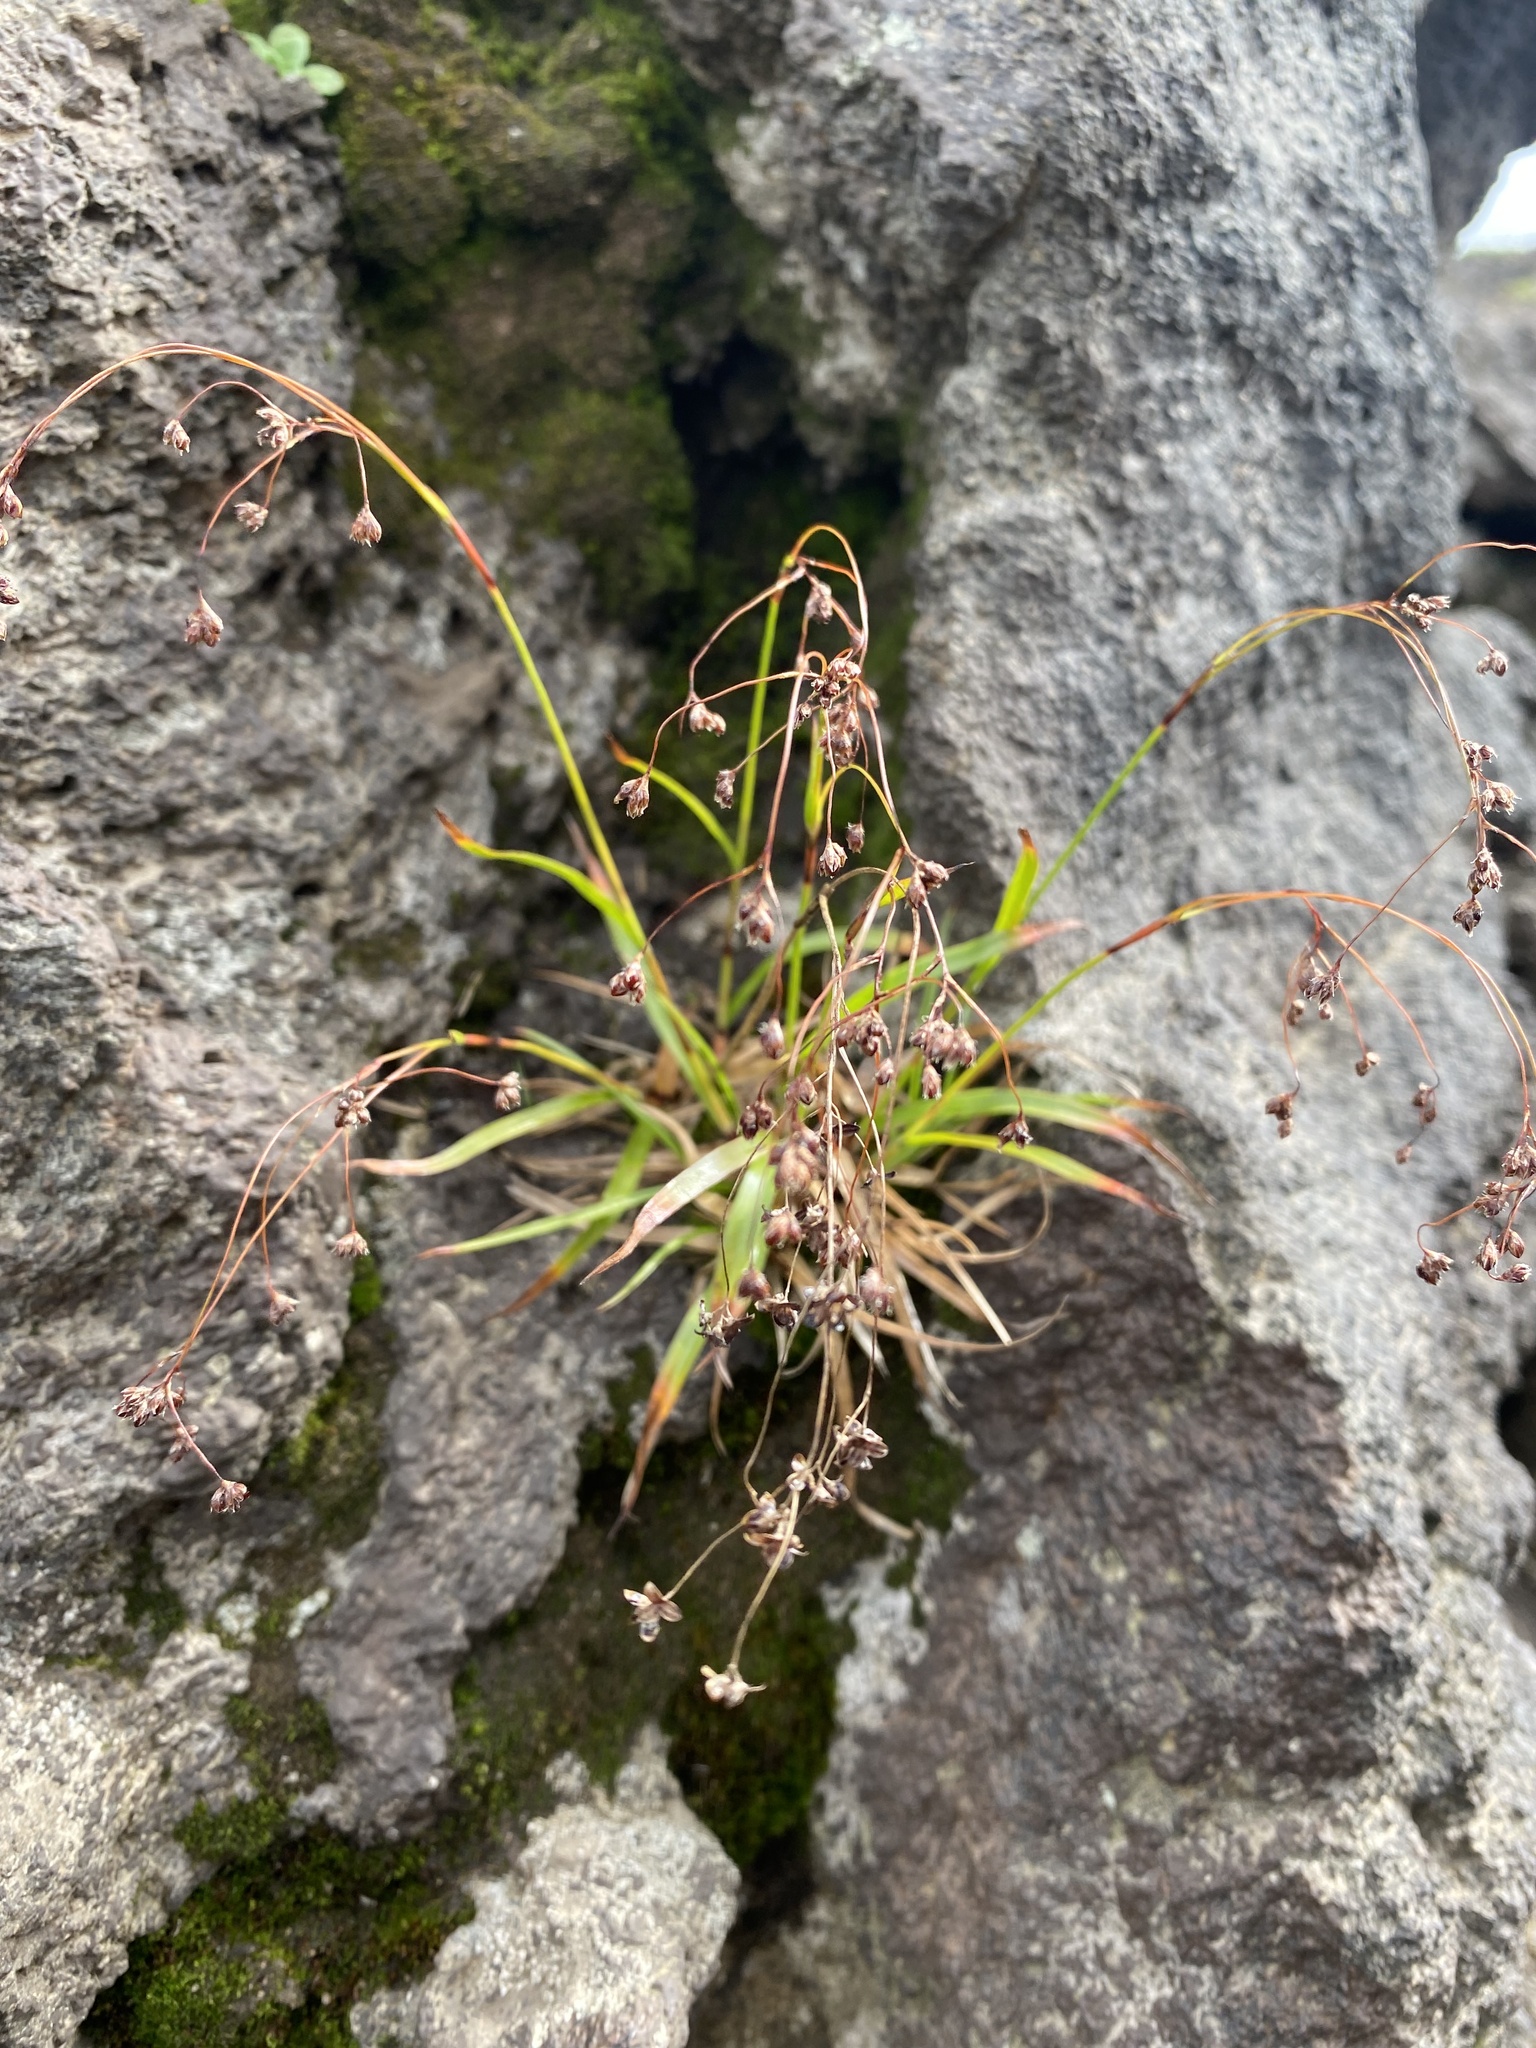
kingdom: Plantae
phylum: Tracheophyta
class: Liliopsida
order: Poales
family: Juncaceae
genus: Luzula
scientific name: Luzula parviflora
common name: Millet woodrush
